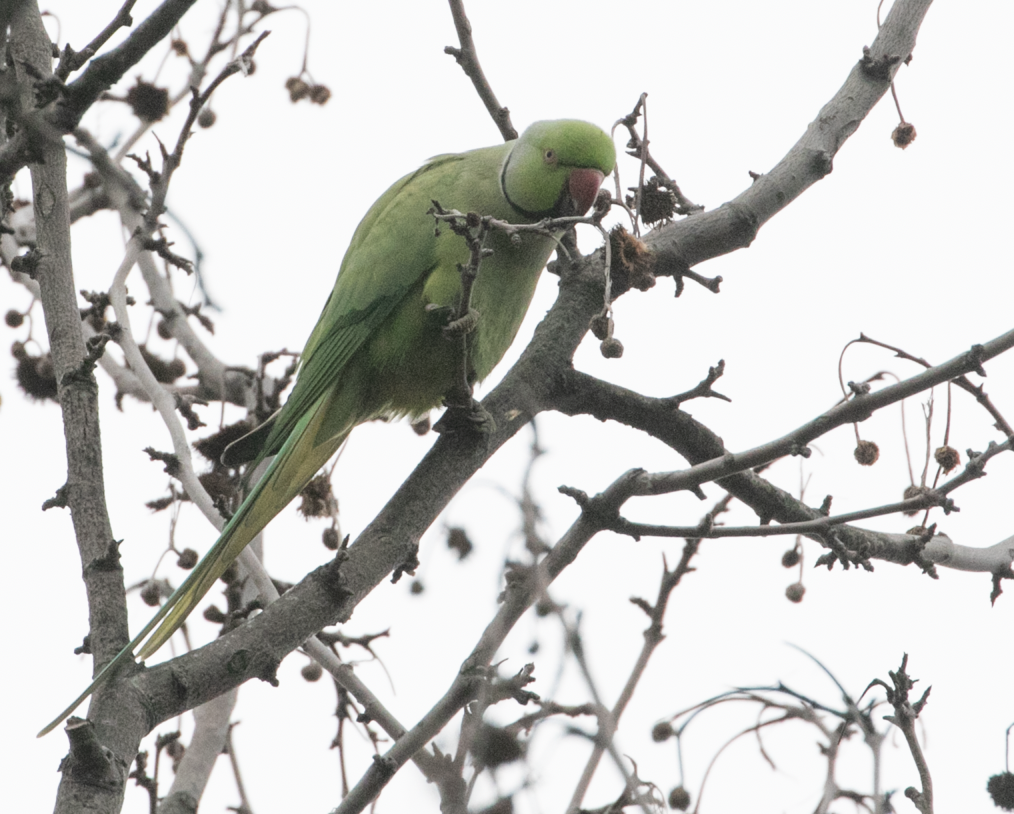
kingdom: Animalia
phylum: Chordata
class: Aves
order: Psittaciformes
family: Psittacidae
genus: Psittacula
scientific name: Psittacula krameri
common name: Rose-ringed parakeet
